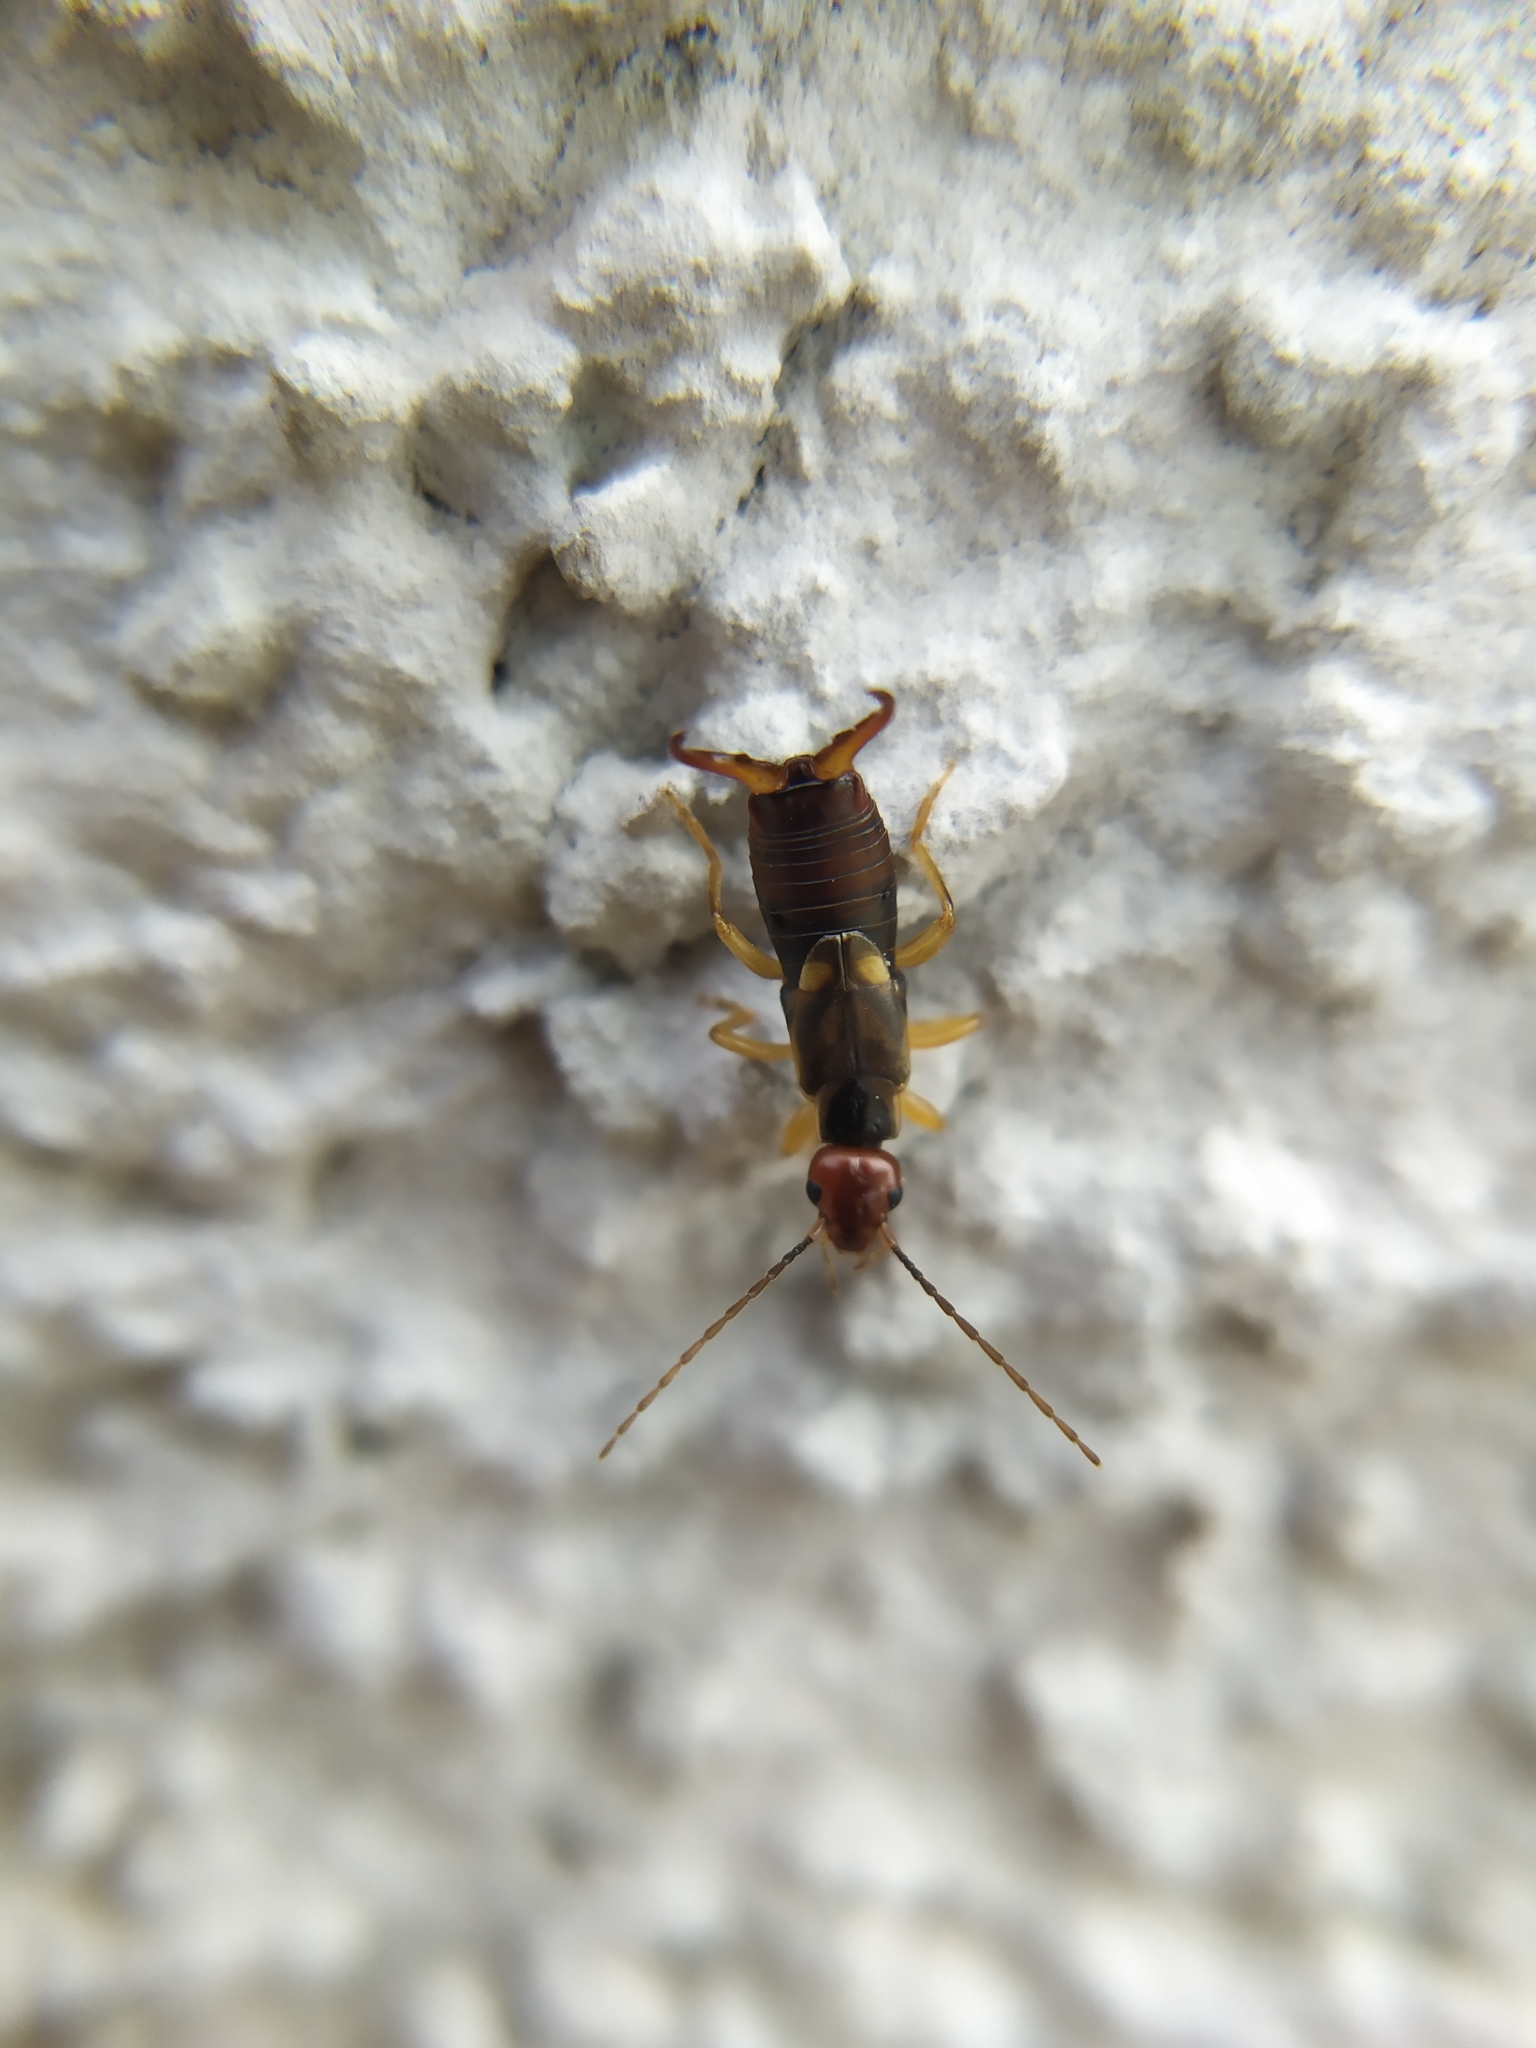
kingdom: Animalia
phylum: Arthropoda
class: Insecta
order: Dermaptera
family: Forficulidae
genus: Forficula
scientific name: Forficula auricularia
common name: European earwig
